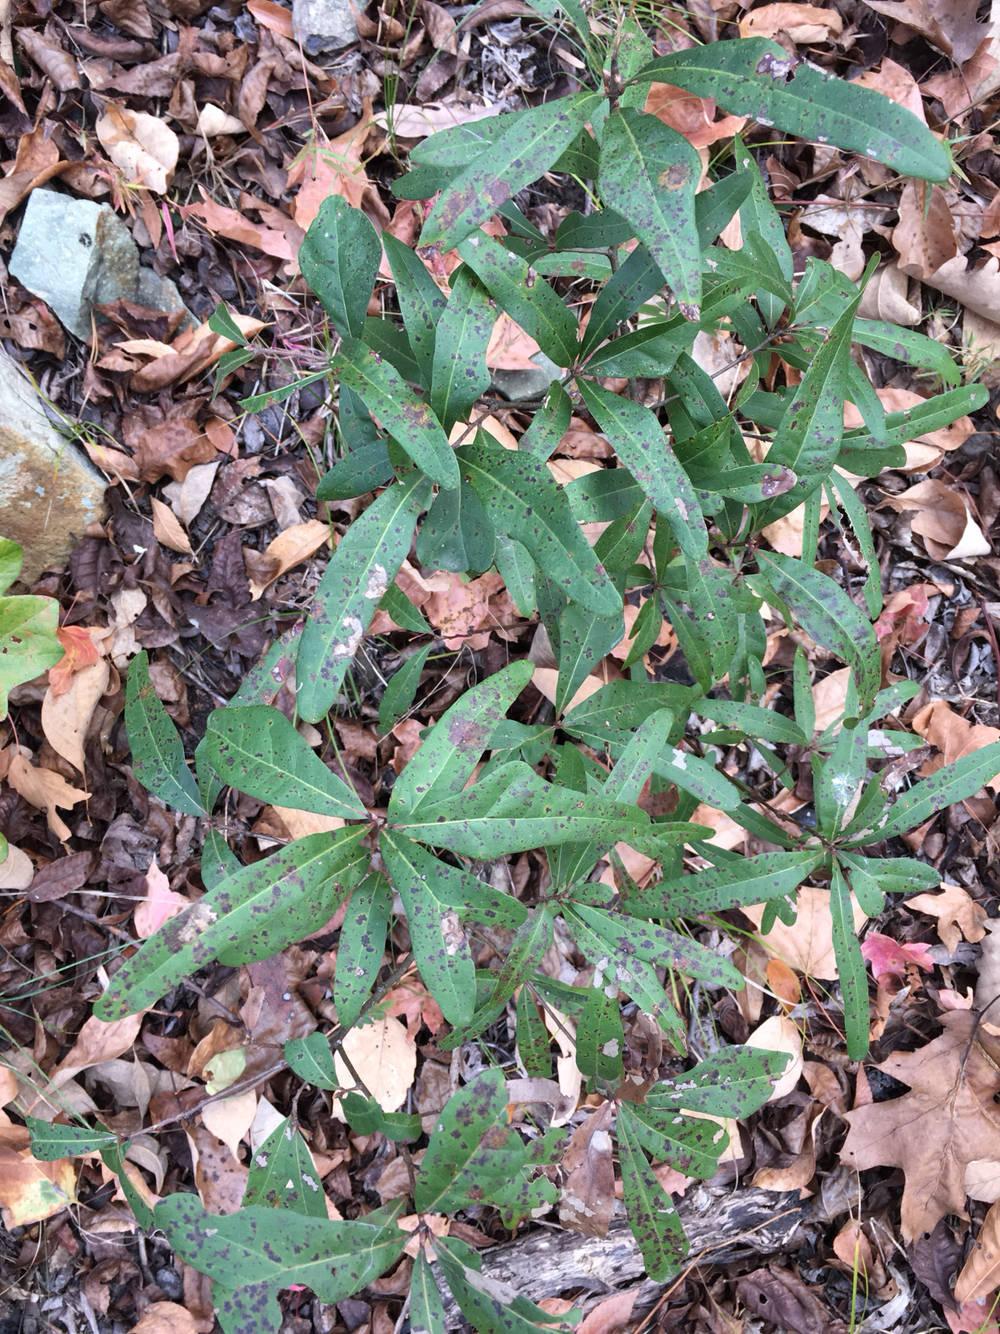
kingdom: Plantae
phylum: Tracheophyta
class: Magnoliopsida
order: Fagales
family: Fagaceae
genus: Quercus
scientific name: Quercus nigra
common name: Water oak
